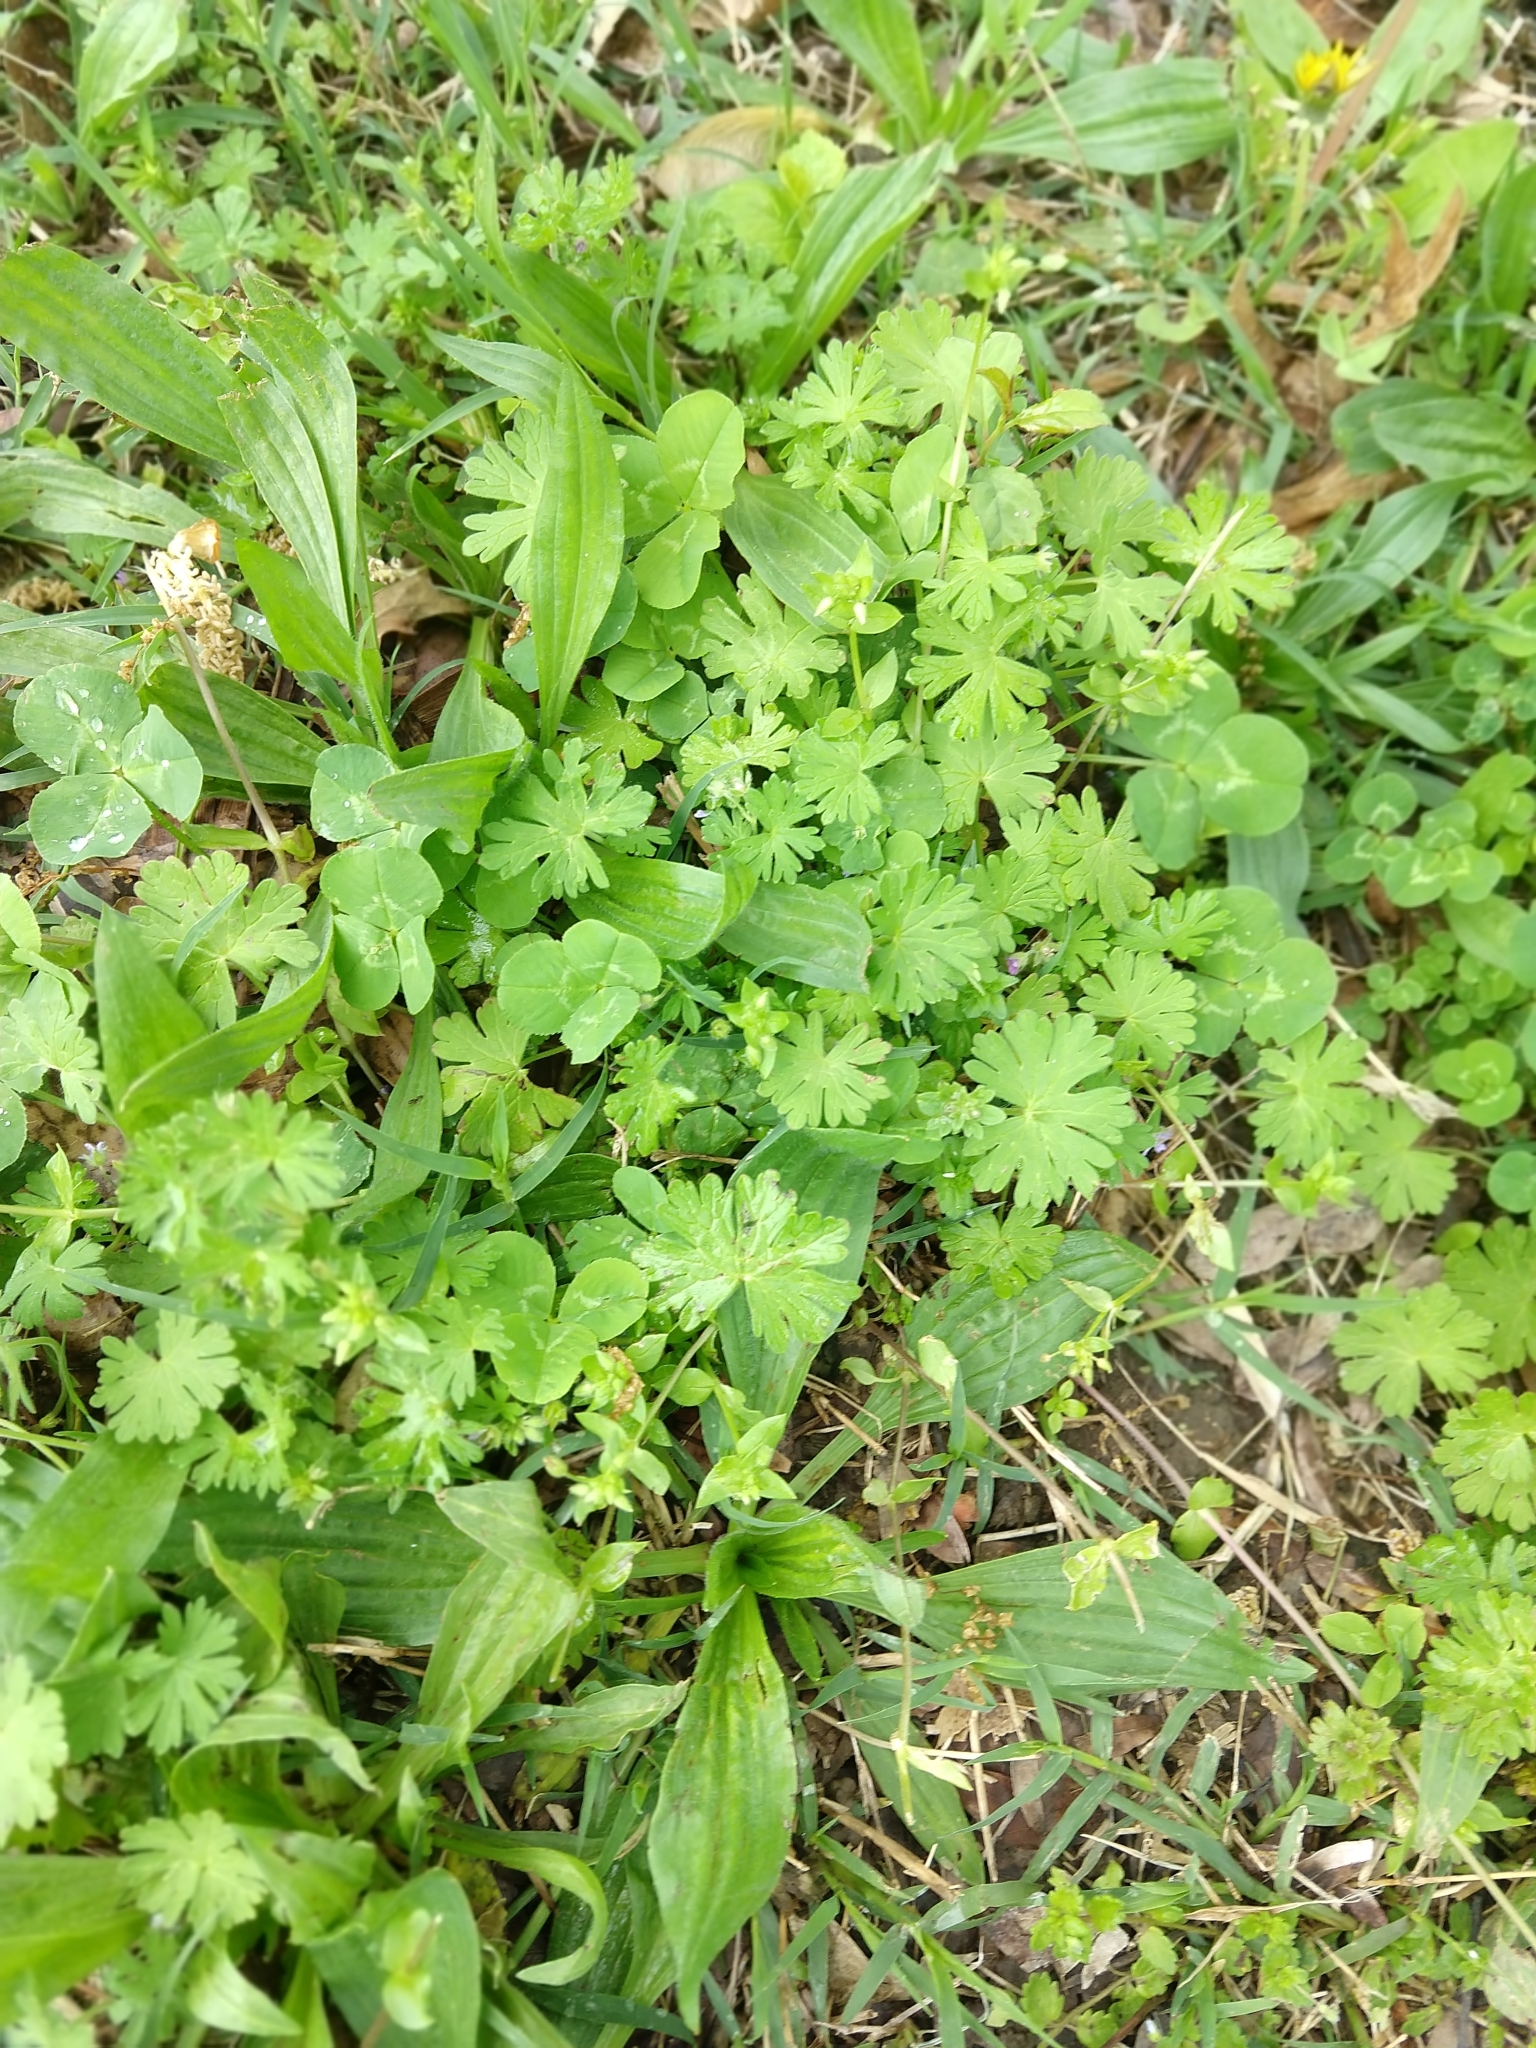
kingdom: Plantae
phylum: Tracheophyta
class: Magnoliopsida
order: Geraniales
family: Geraniaceae
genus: Geranium
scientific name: Geranium carolinianum
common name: Carolina crane's-bill
